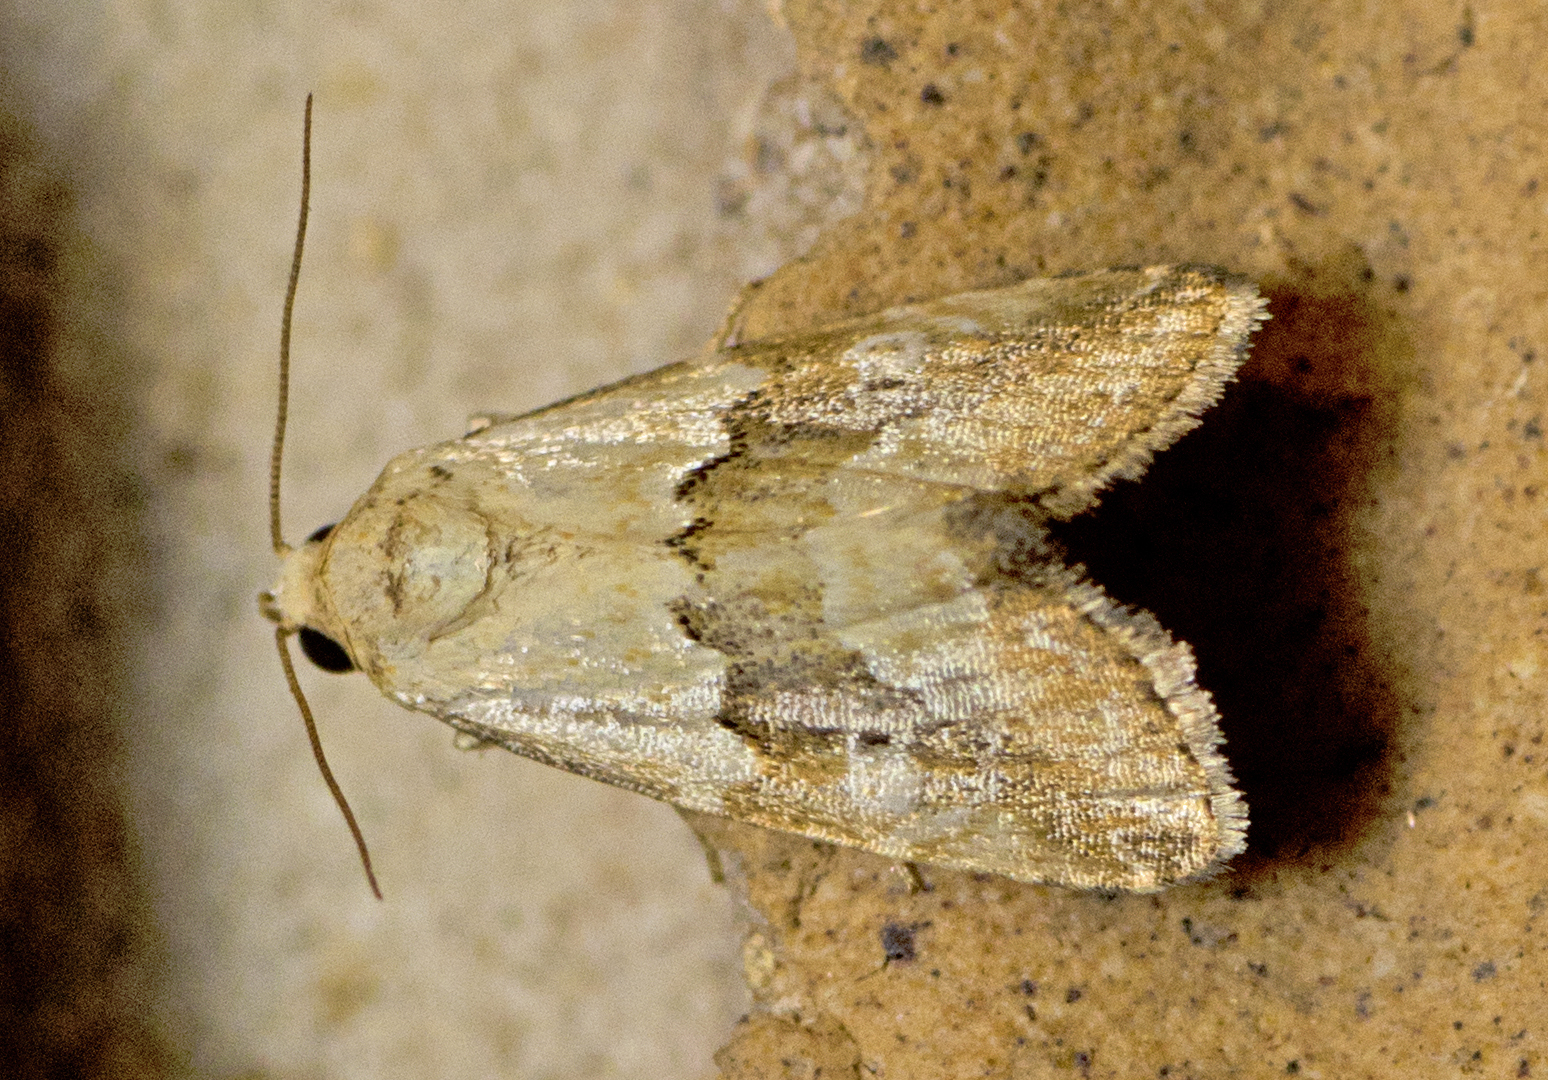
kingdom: Animalia
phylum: Arthropoda
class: Insecta
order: Lepidoptera
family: Noctuidae
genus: Maliattha
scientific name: Maliattha amorpha
